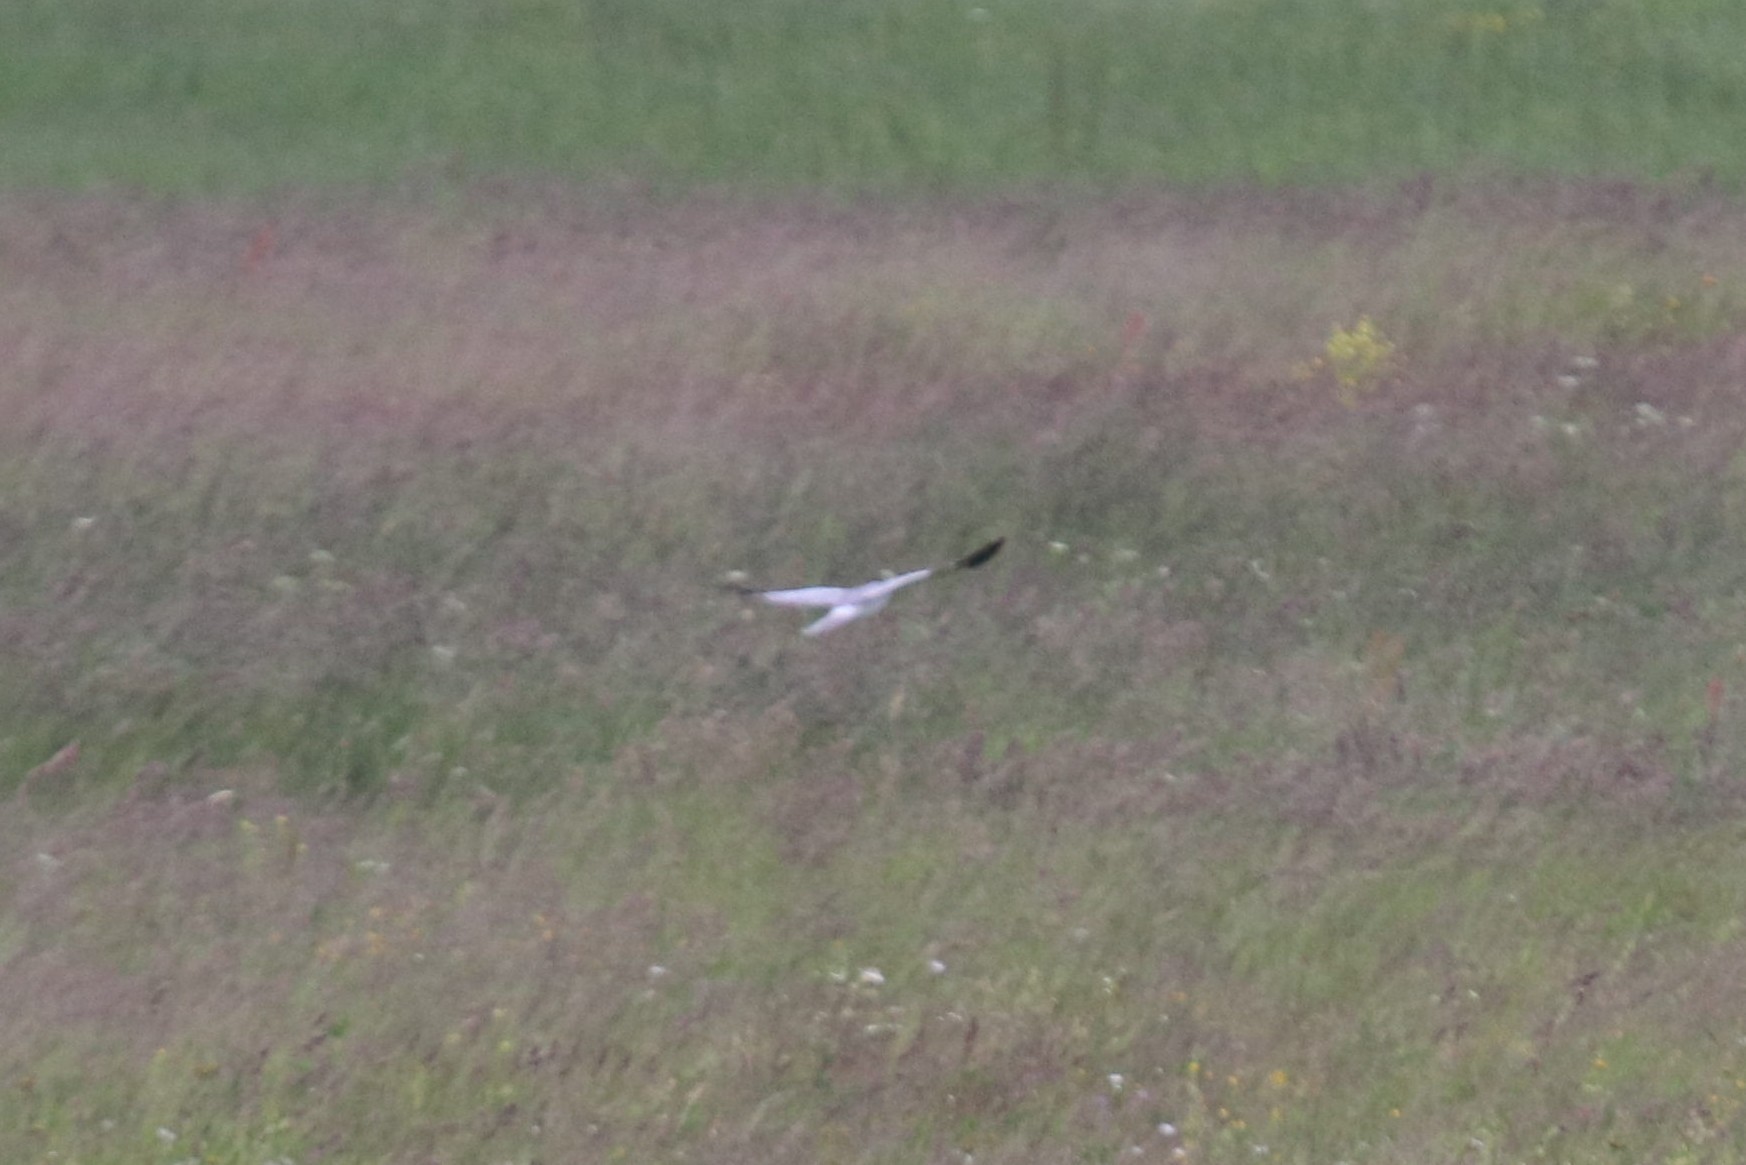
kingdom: Animalia
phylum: Chordata
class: Aves
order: Accipitriformes
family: Accipitridae
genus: Circus
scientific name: Circus cyaneus
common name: Hen harrier
